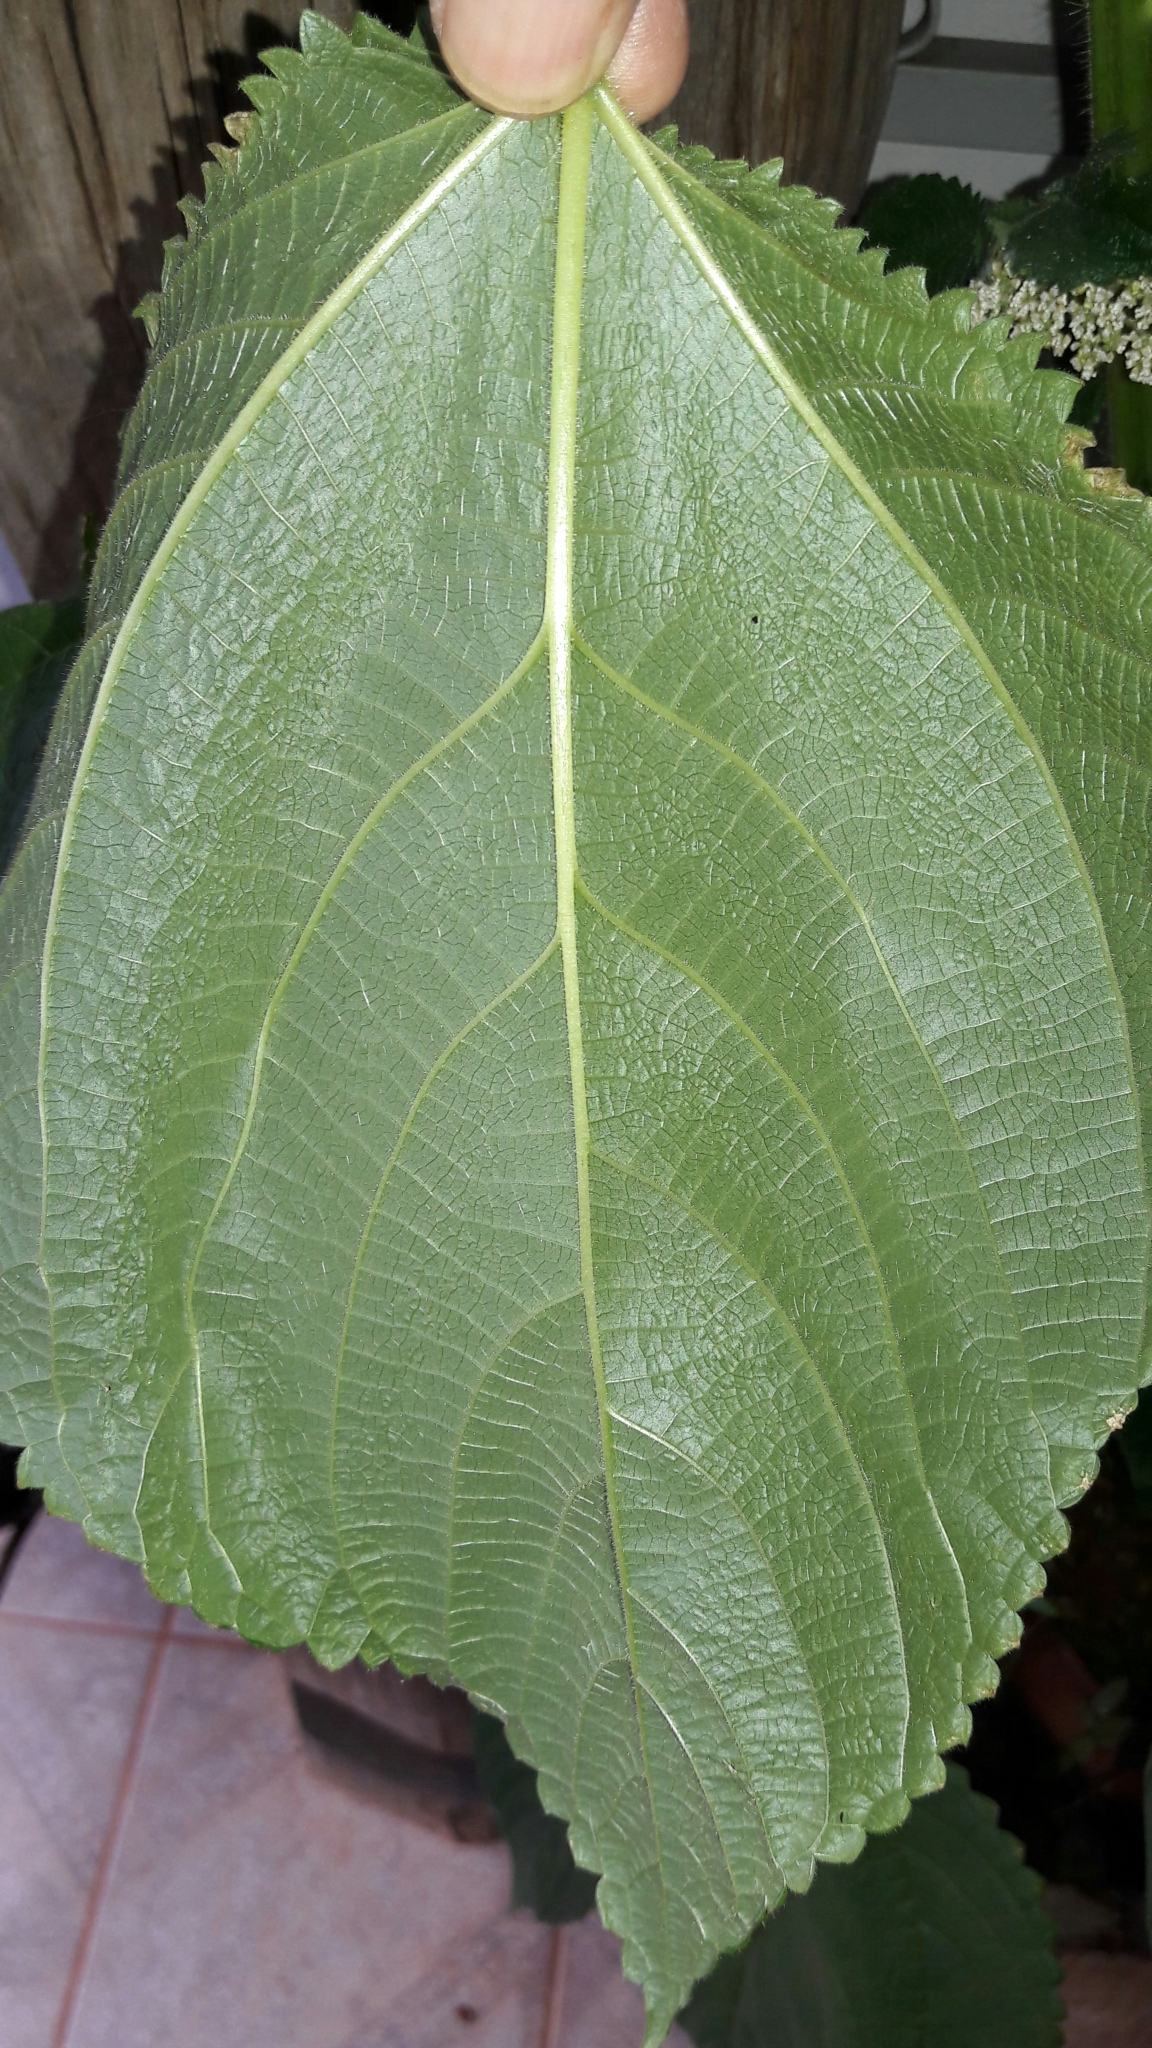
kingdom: Plantae
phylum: Tracheophyta
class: Magnoliopsida
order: Rosales
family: Urticaceae
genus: Urera
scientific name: Urera caracasana
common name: Flameberry
